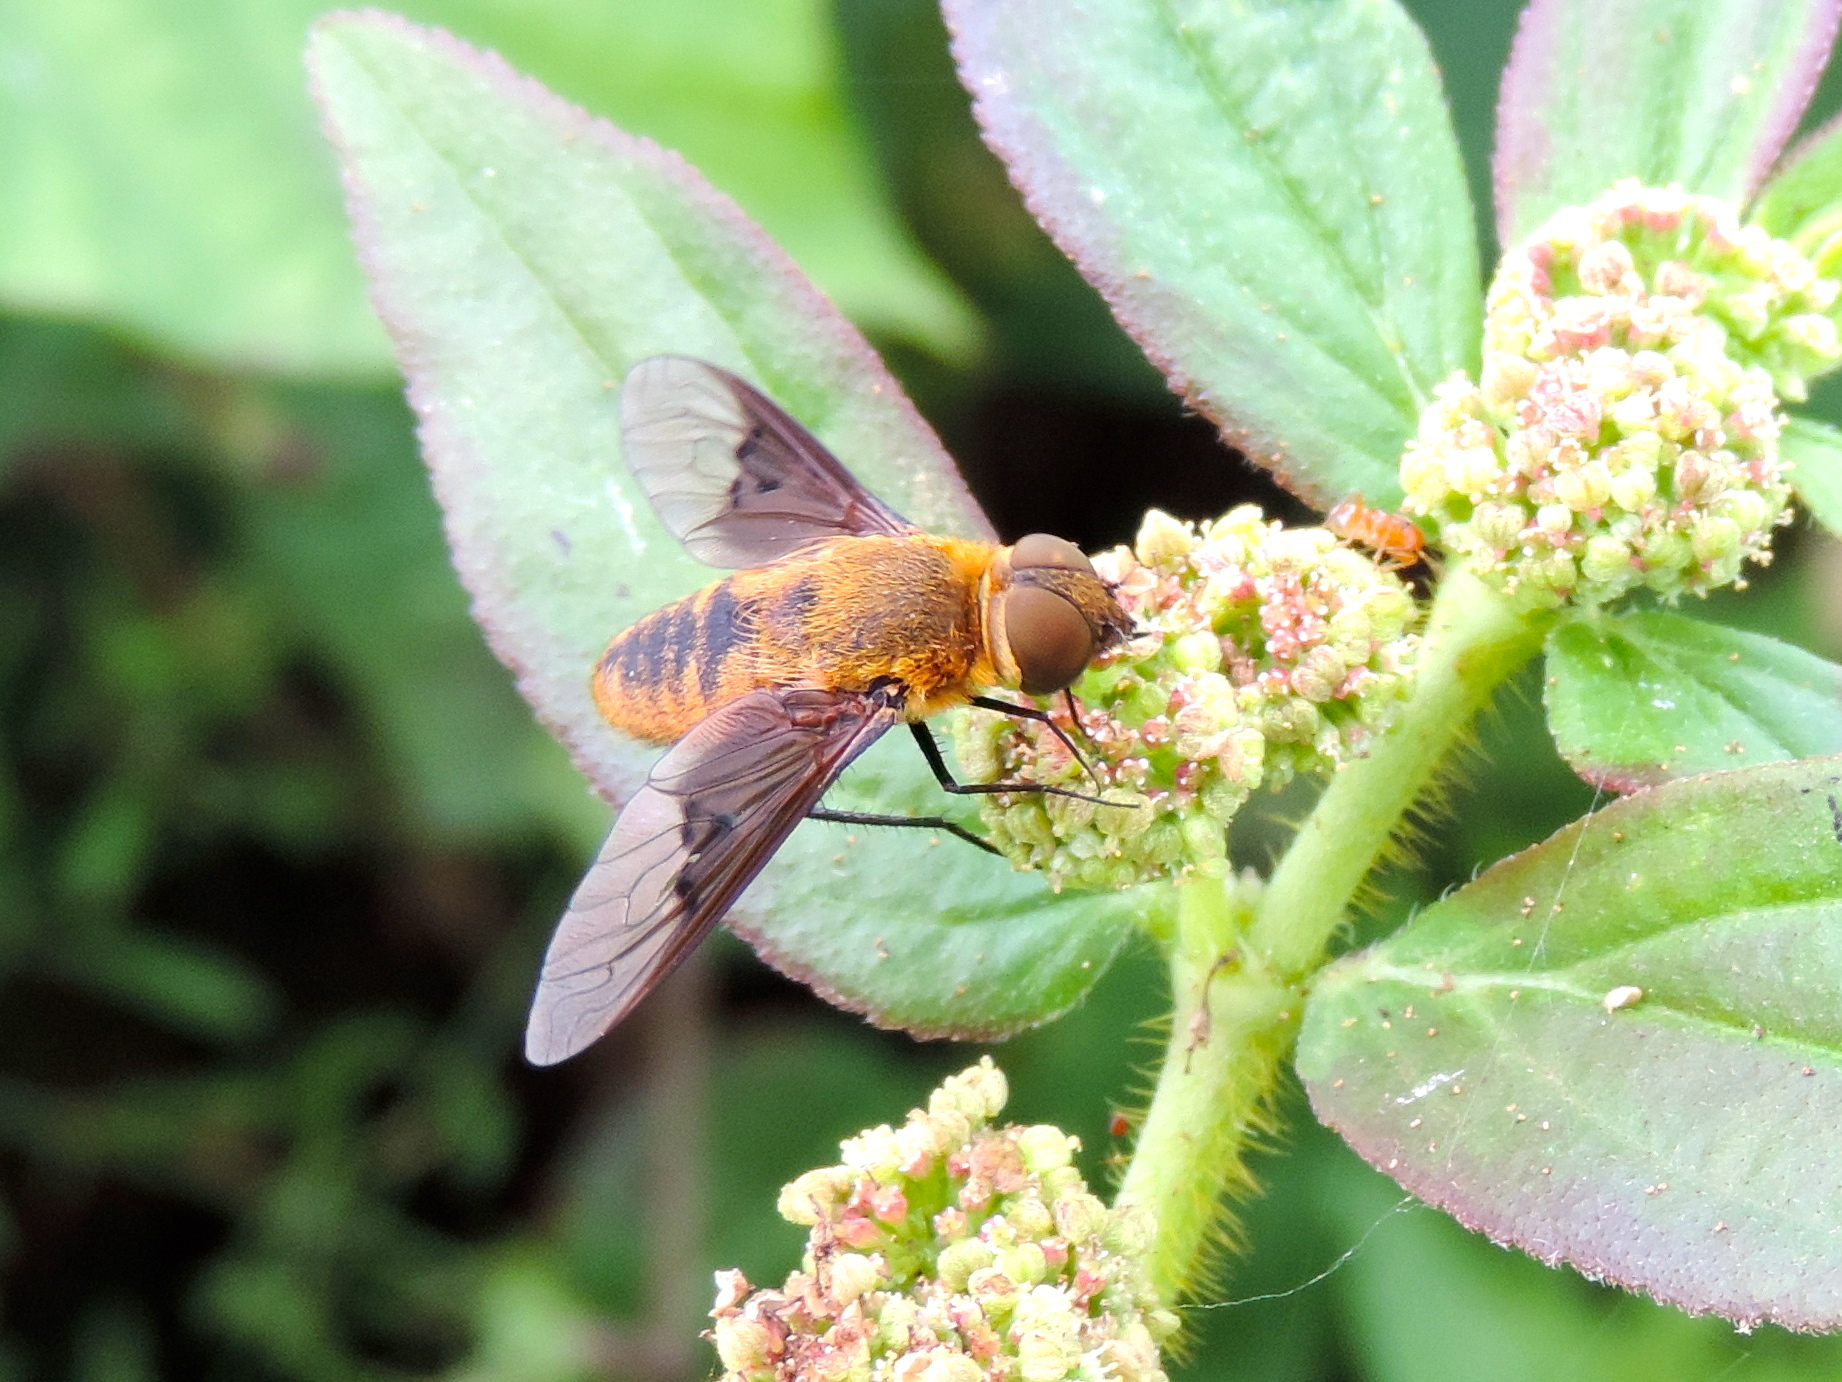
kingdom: Animalia
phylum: Arthropoda
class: Insecta
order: Diptera
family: Bombyliidae
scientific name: Bombyliidae
